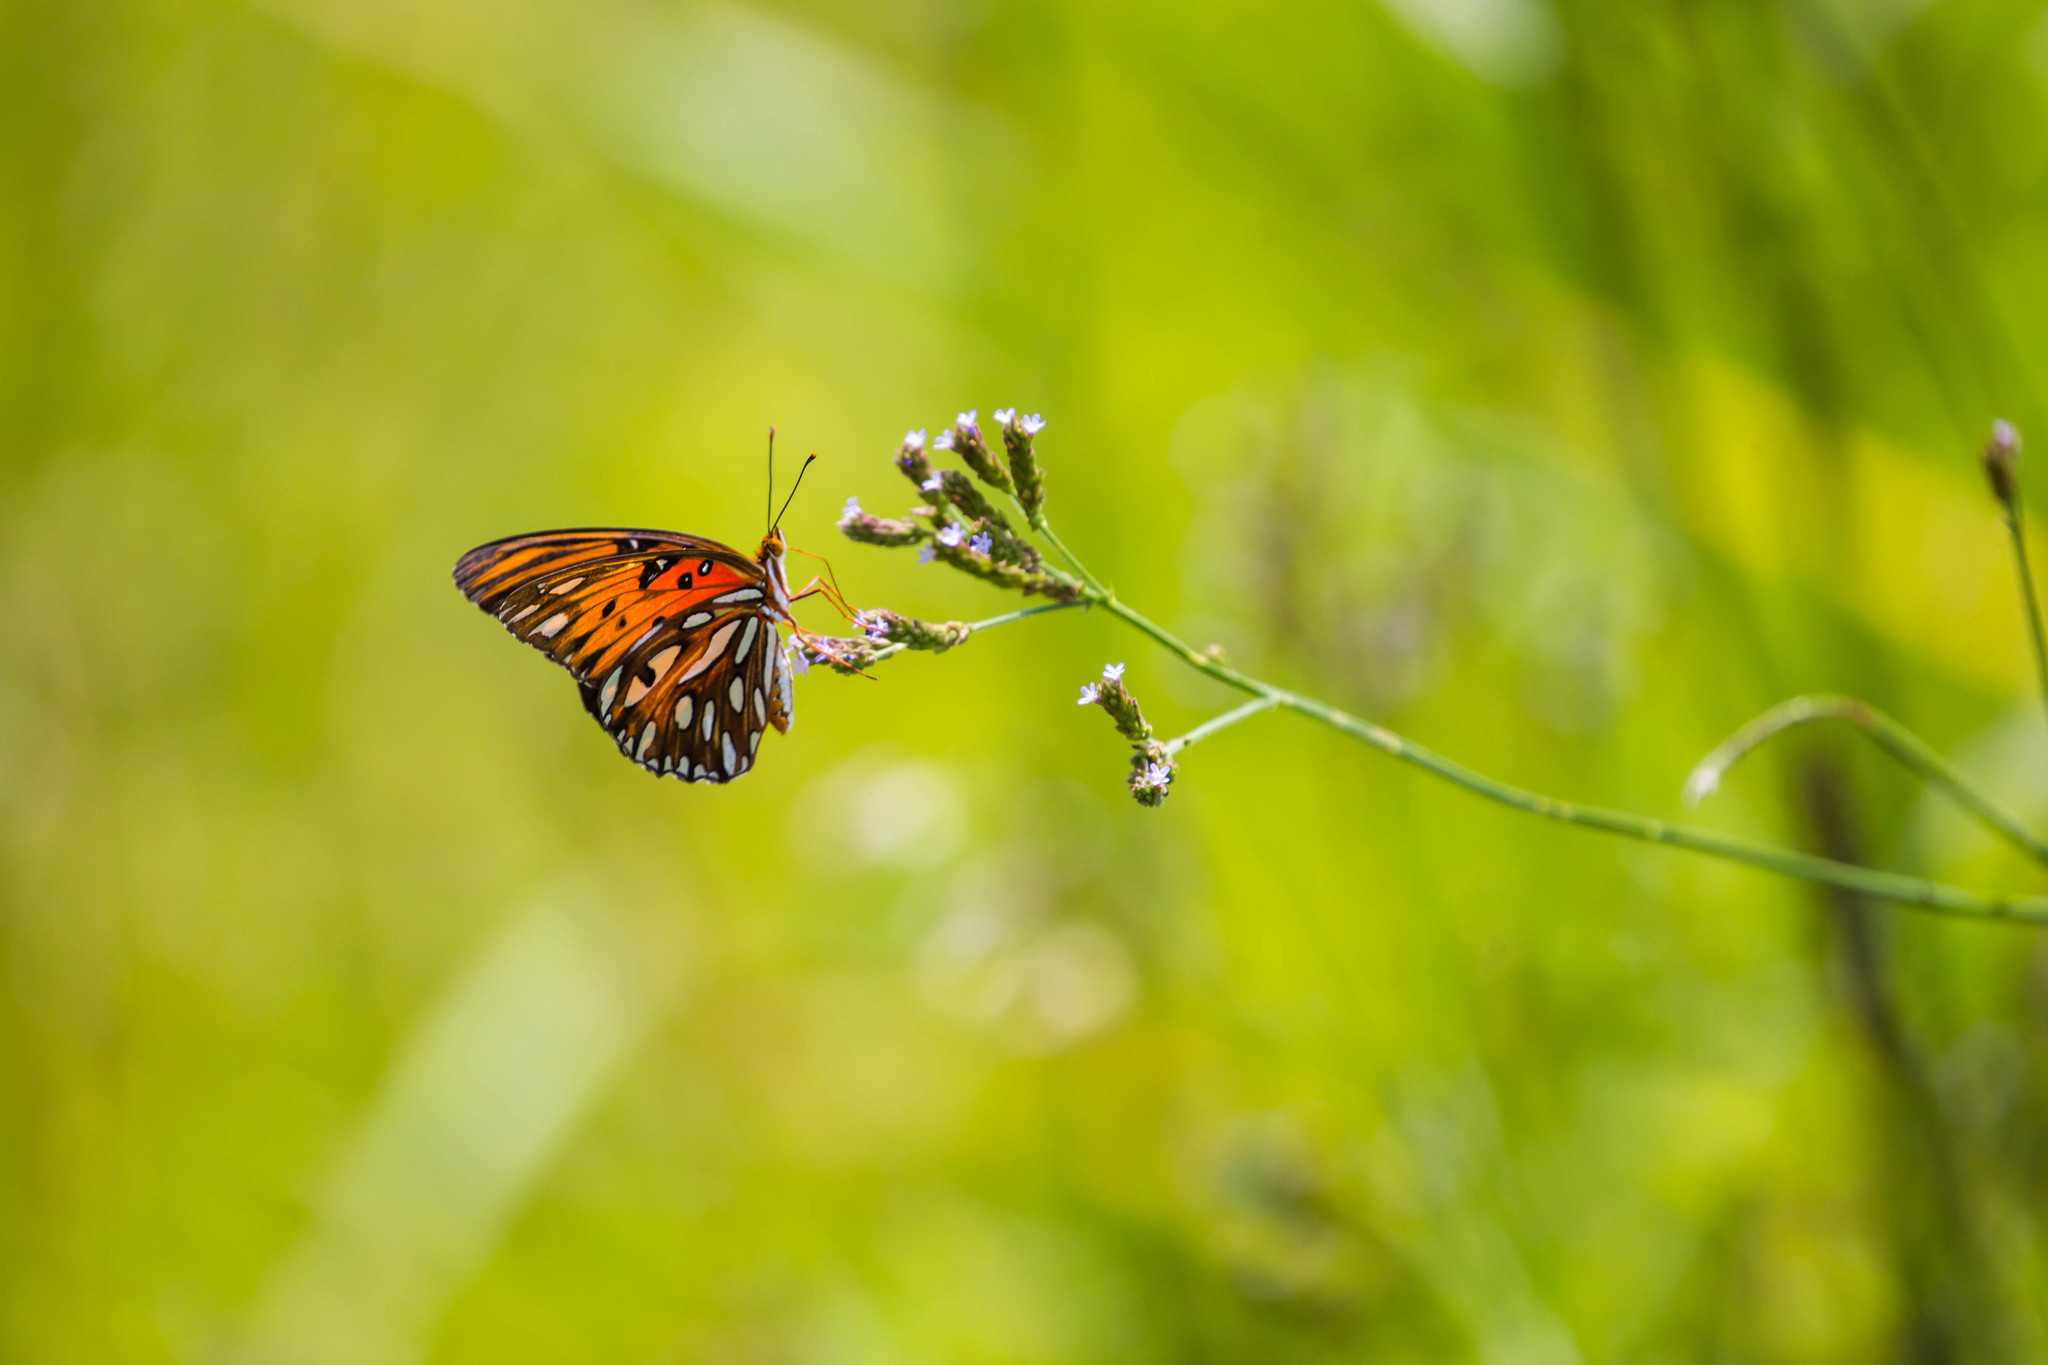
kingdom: Animalia
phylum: Arthropoda
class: Insecta
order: Lepidoptera
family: Nymphalidae
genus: Dione
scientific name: Dione vanillae
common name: Gulf fritillary
